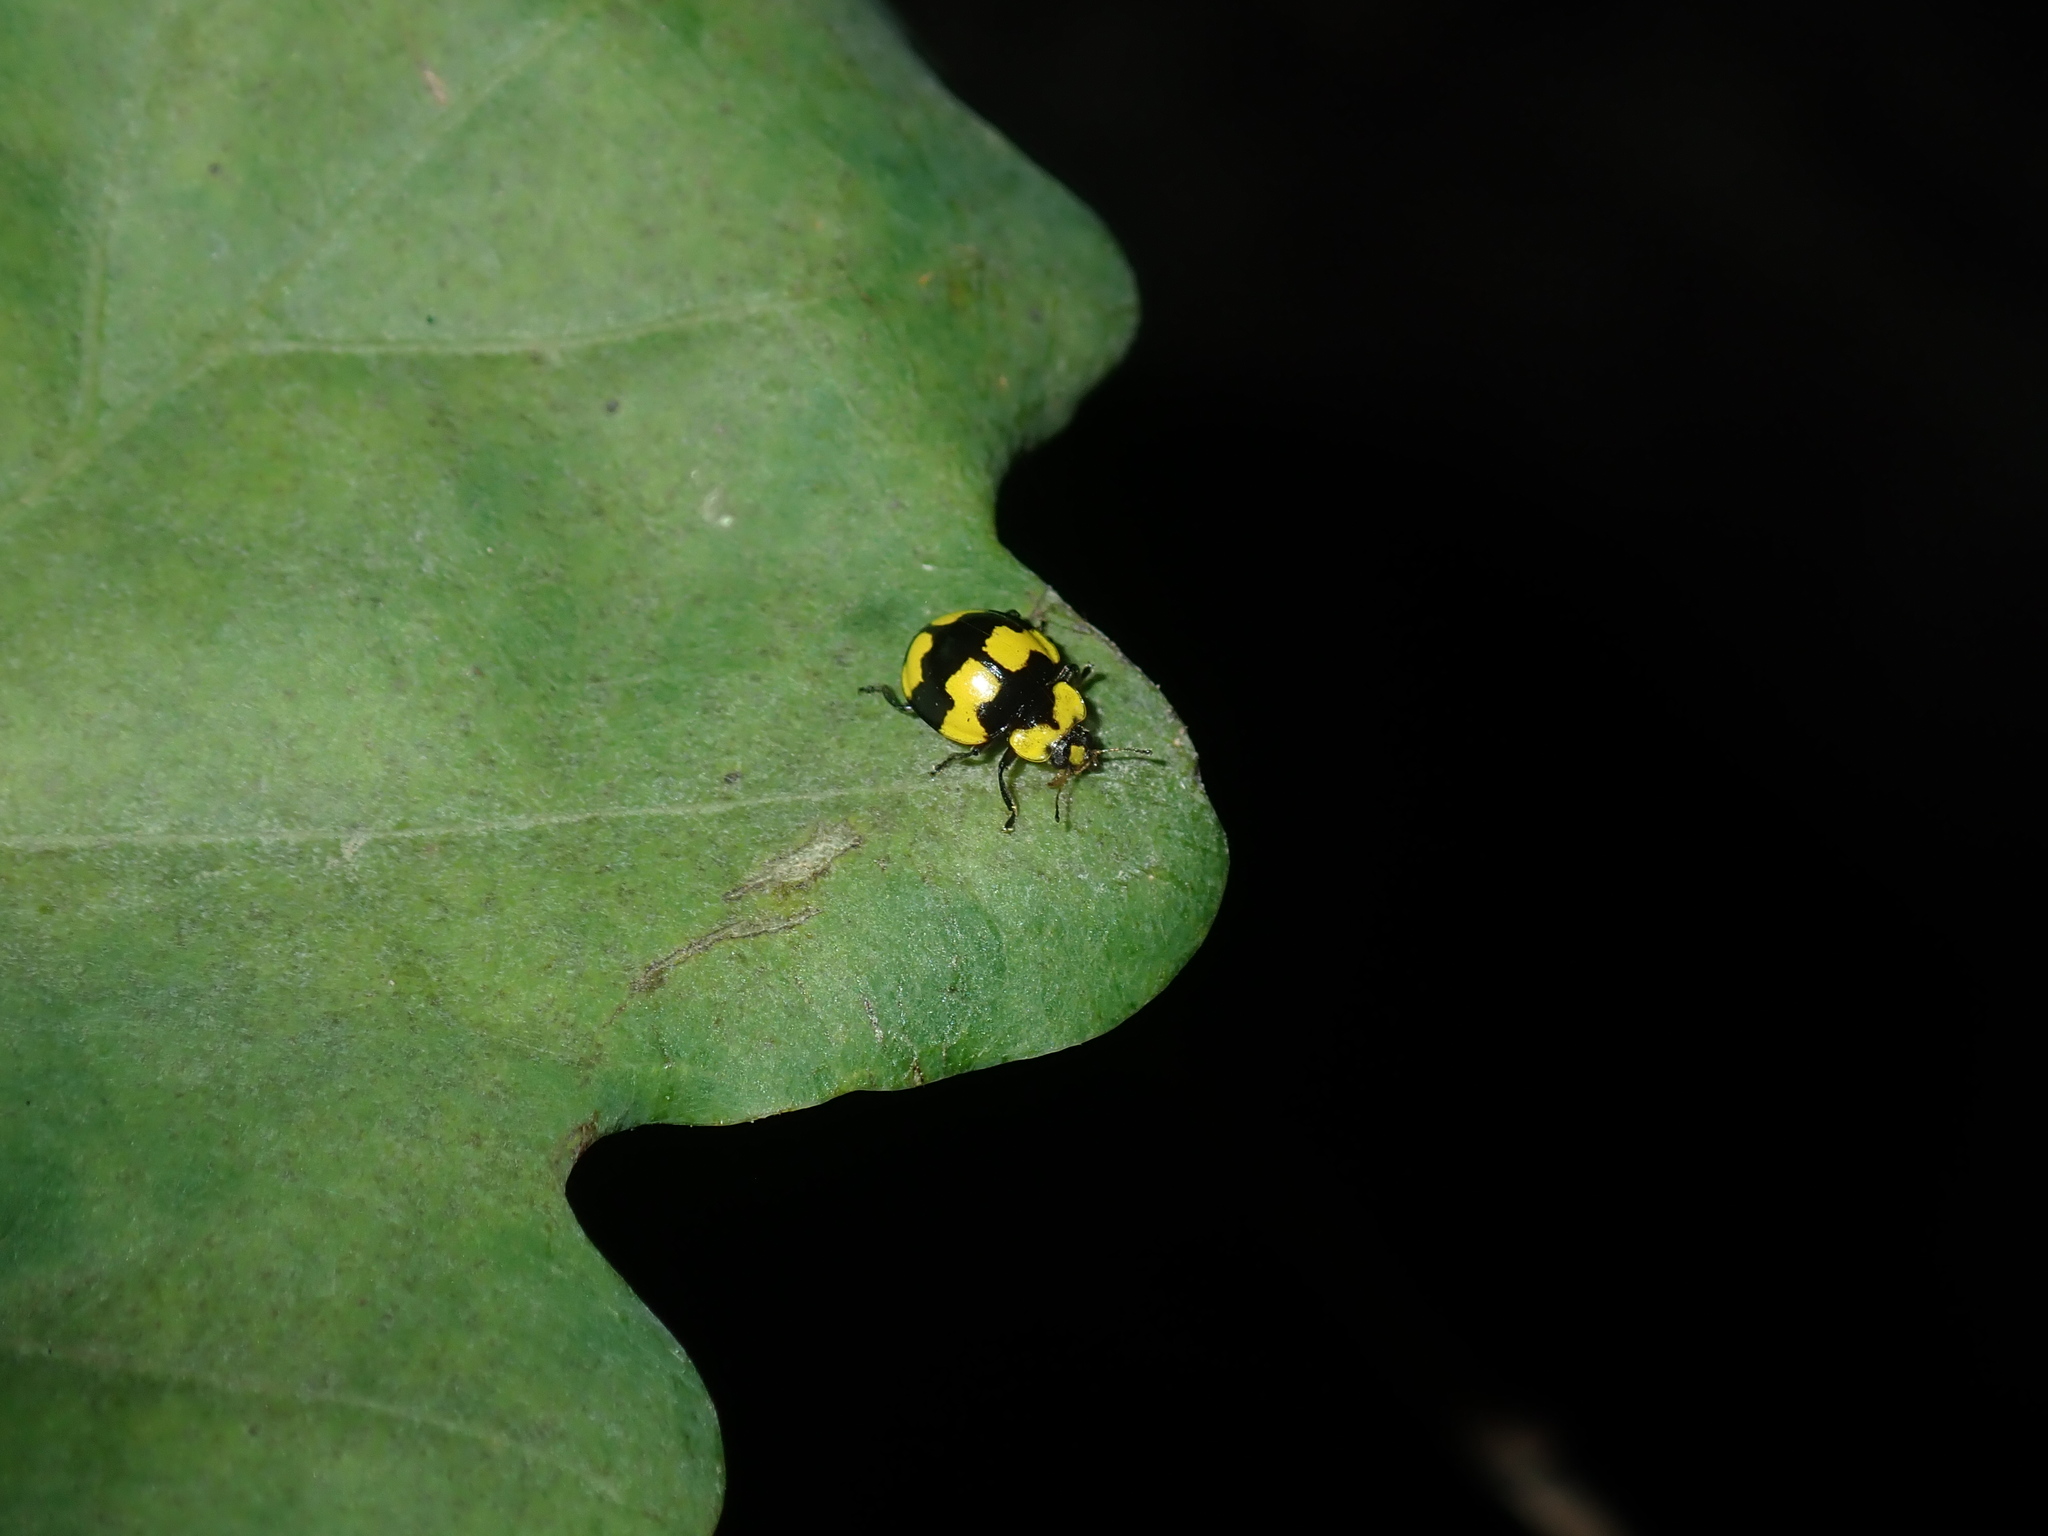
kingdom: Animalia
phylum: Arthropoda
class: Insecta
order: Coleoptera
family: Coccinellidae
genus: Illeis
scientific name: Illeis galbula
